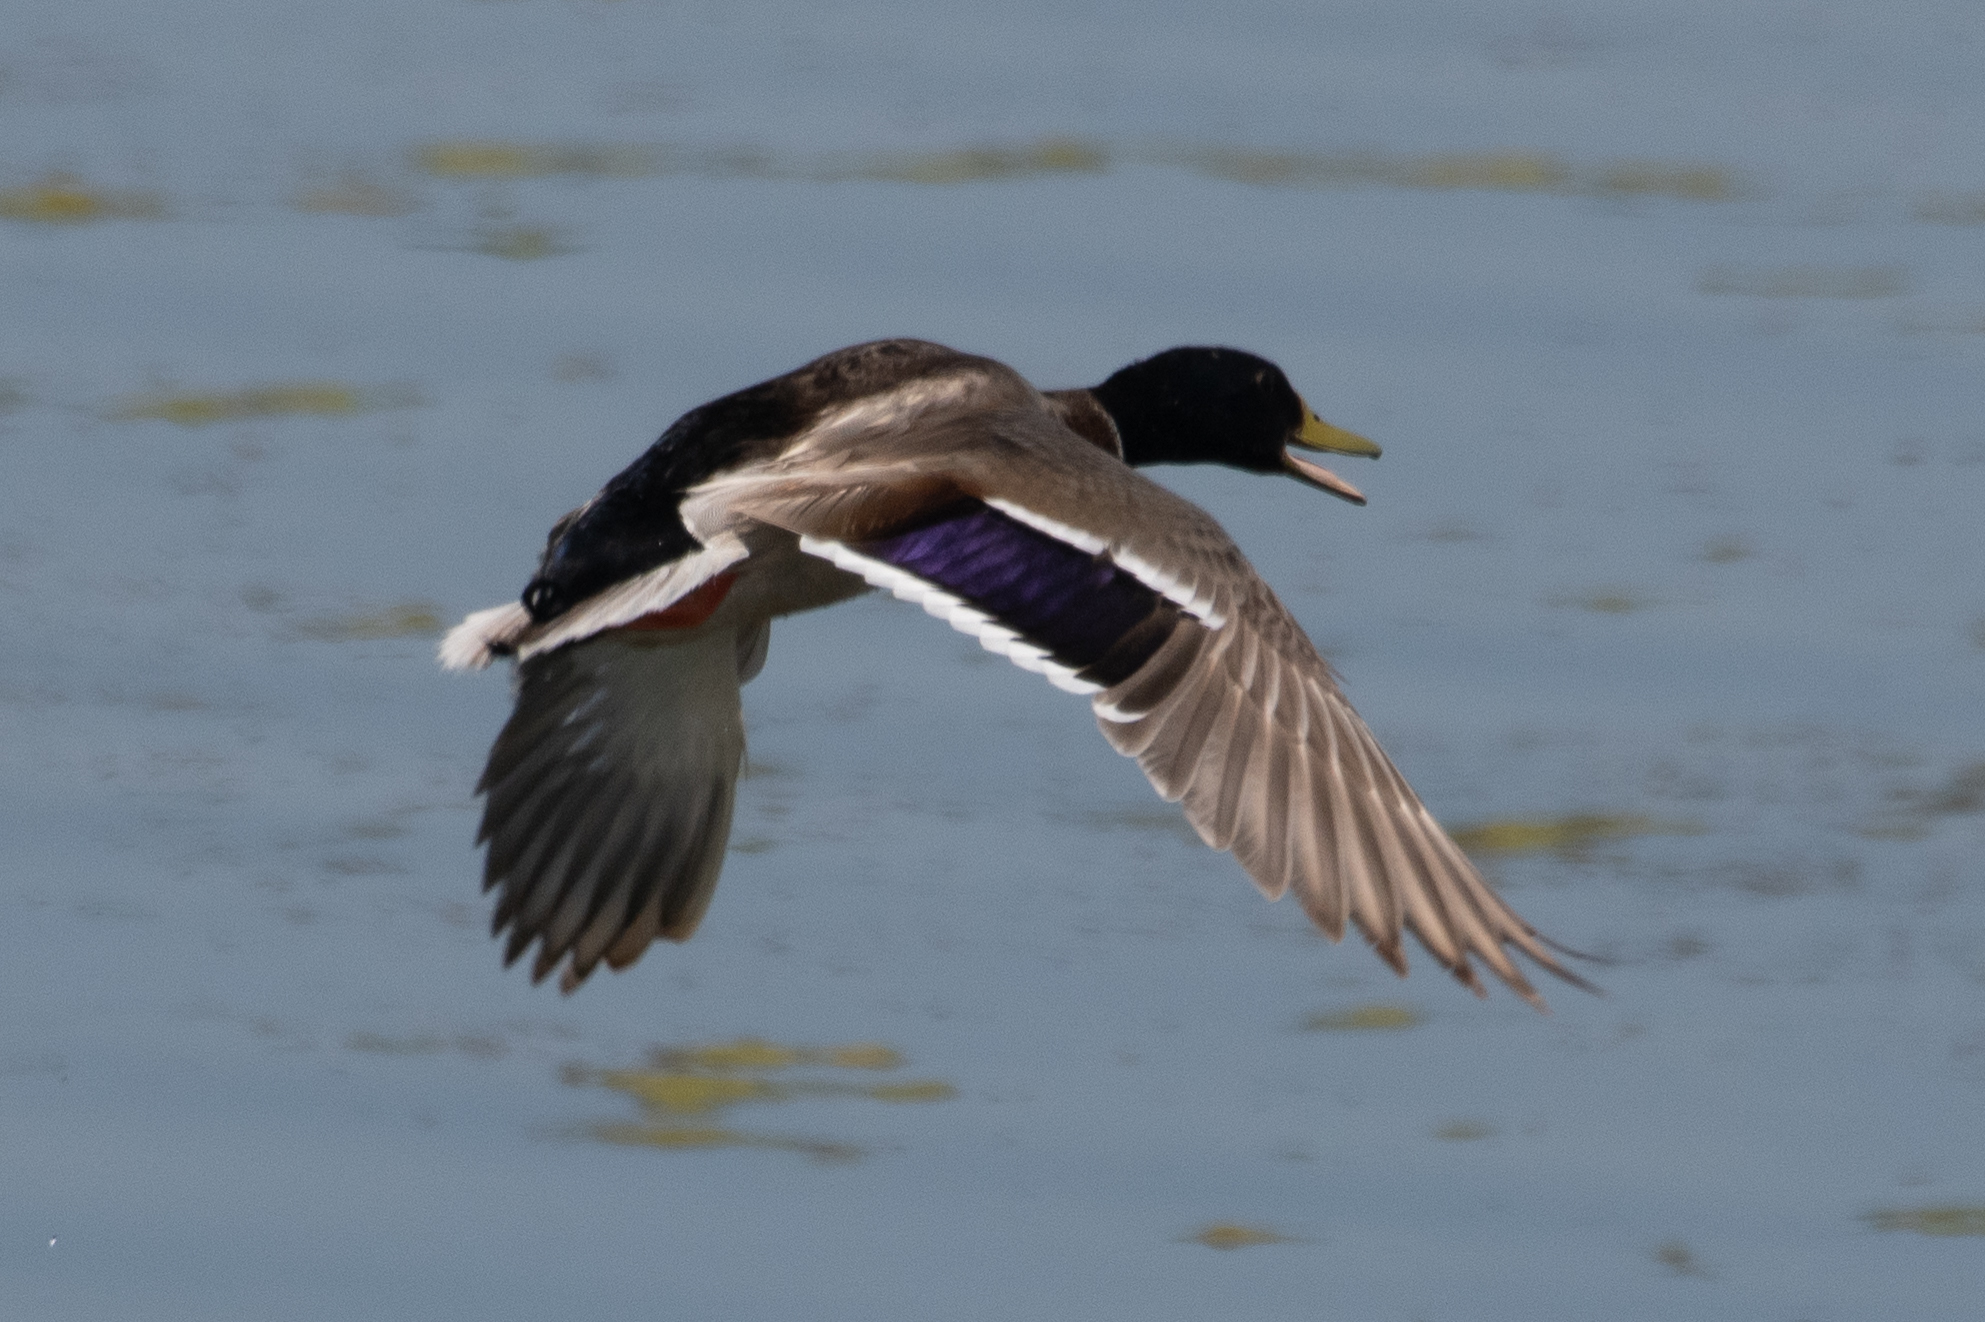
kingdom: Animalia
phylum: Chordata
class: Aves
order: Anseriformes
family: Anatidae
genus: Anas
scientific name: Anas platyrhynchos
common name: Mallard
